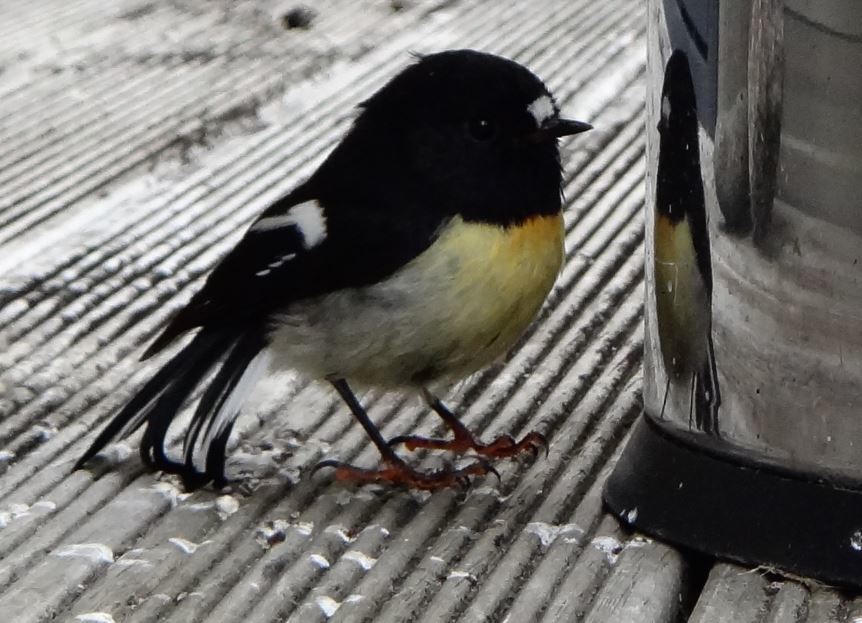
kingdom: Animalia
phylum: Chordata
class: Aves
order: Passeriformes
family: Petroicidae
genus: Petroica
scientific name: Petroica macrocephala
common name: Tomtit
